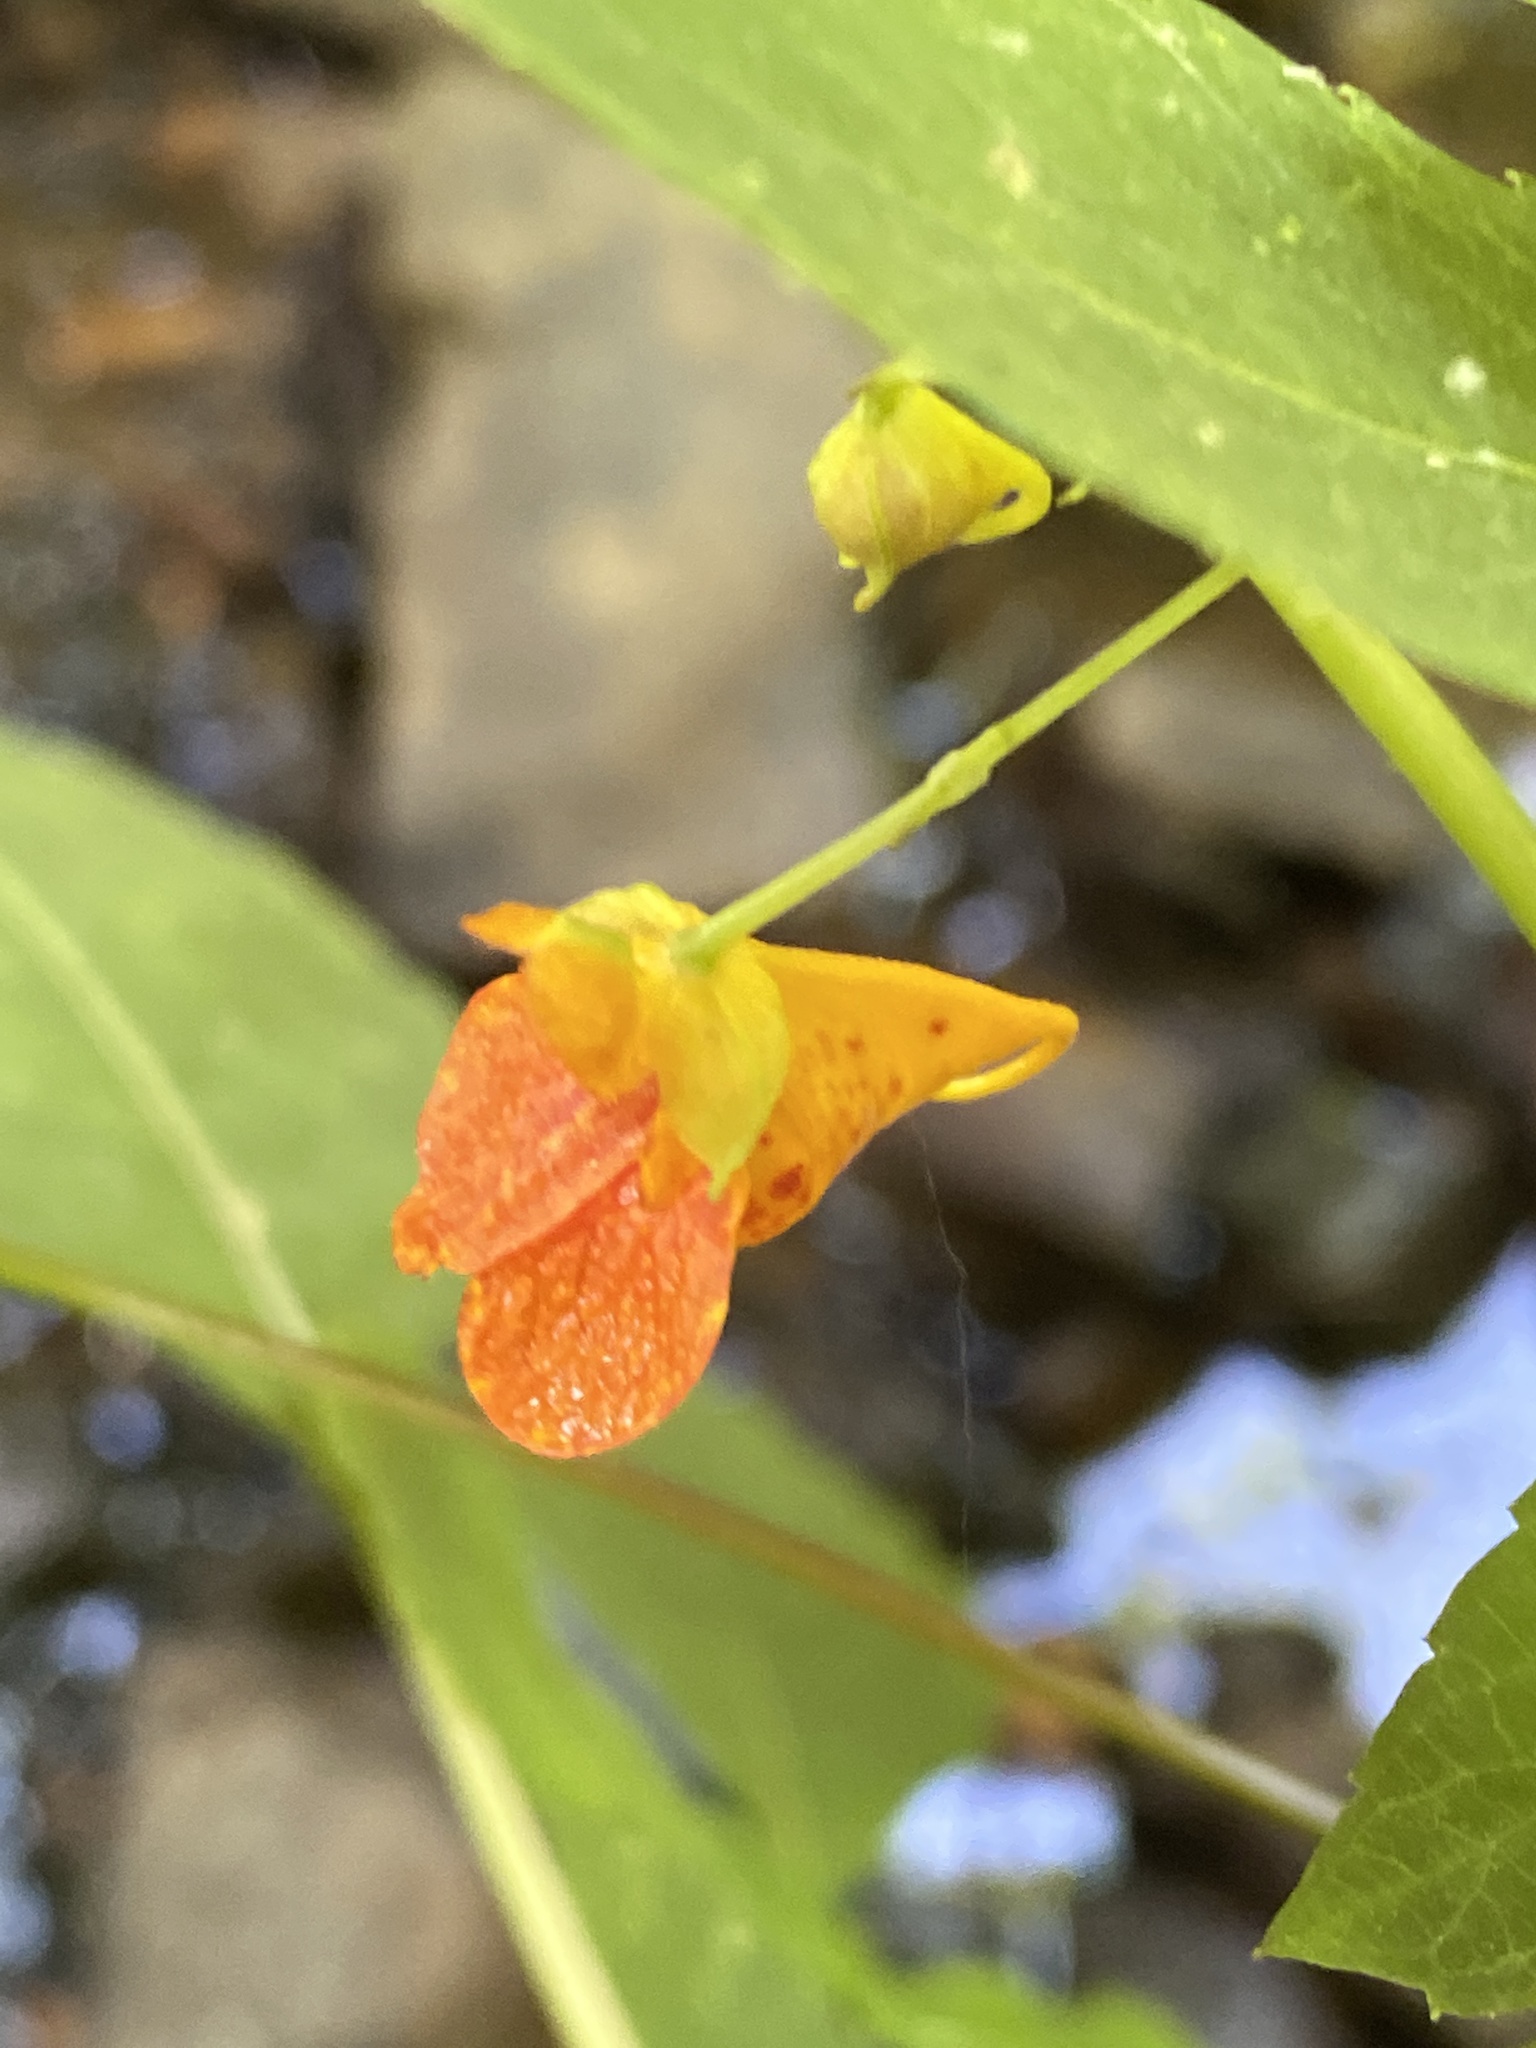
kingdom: Plantae
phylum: Tracheophyta
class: Magnoliopsida
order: Ericales
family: Balsaminaceae
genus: Impatiens
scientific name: Impatiens capensis
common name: Orange balsam
